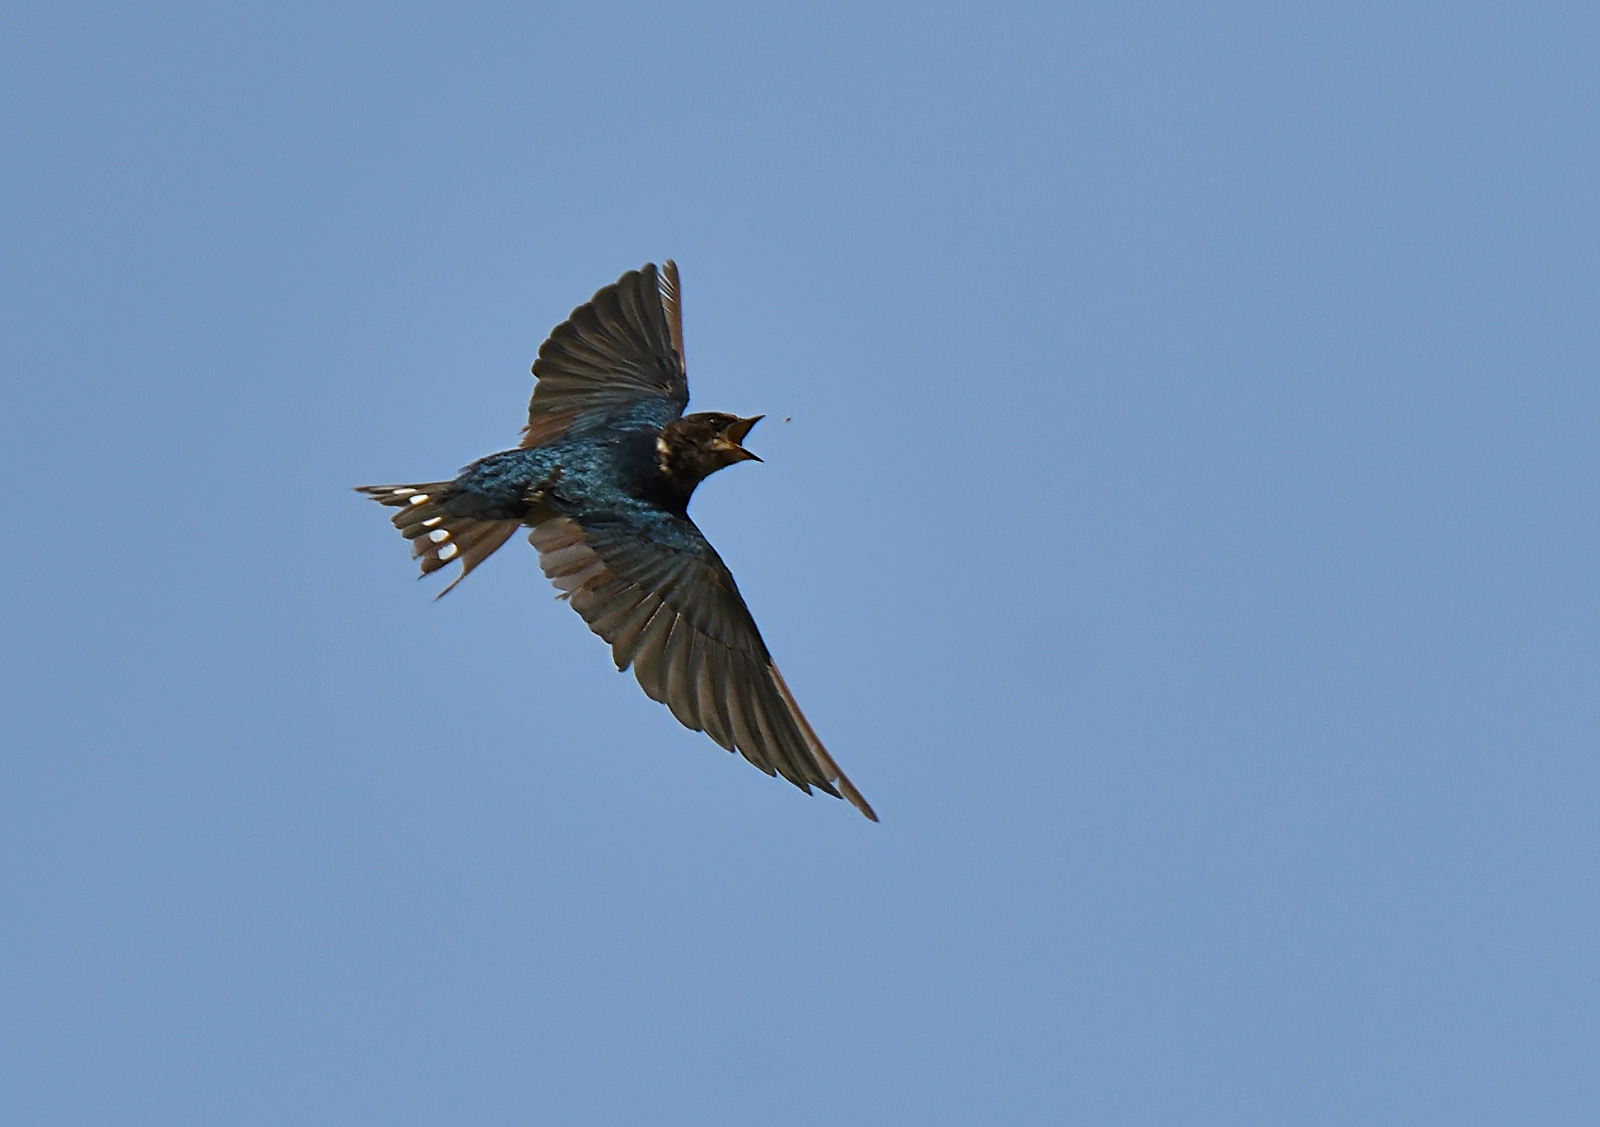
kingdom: Animalia
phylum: Chordata
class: Aves
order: Passeriformes
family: Hirundinidae
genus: Hirundo
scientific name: Hirundo rustica
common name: Barn swallow
